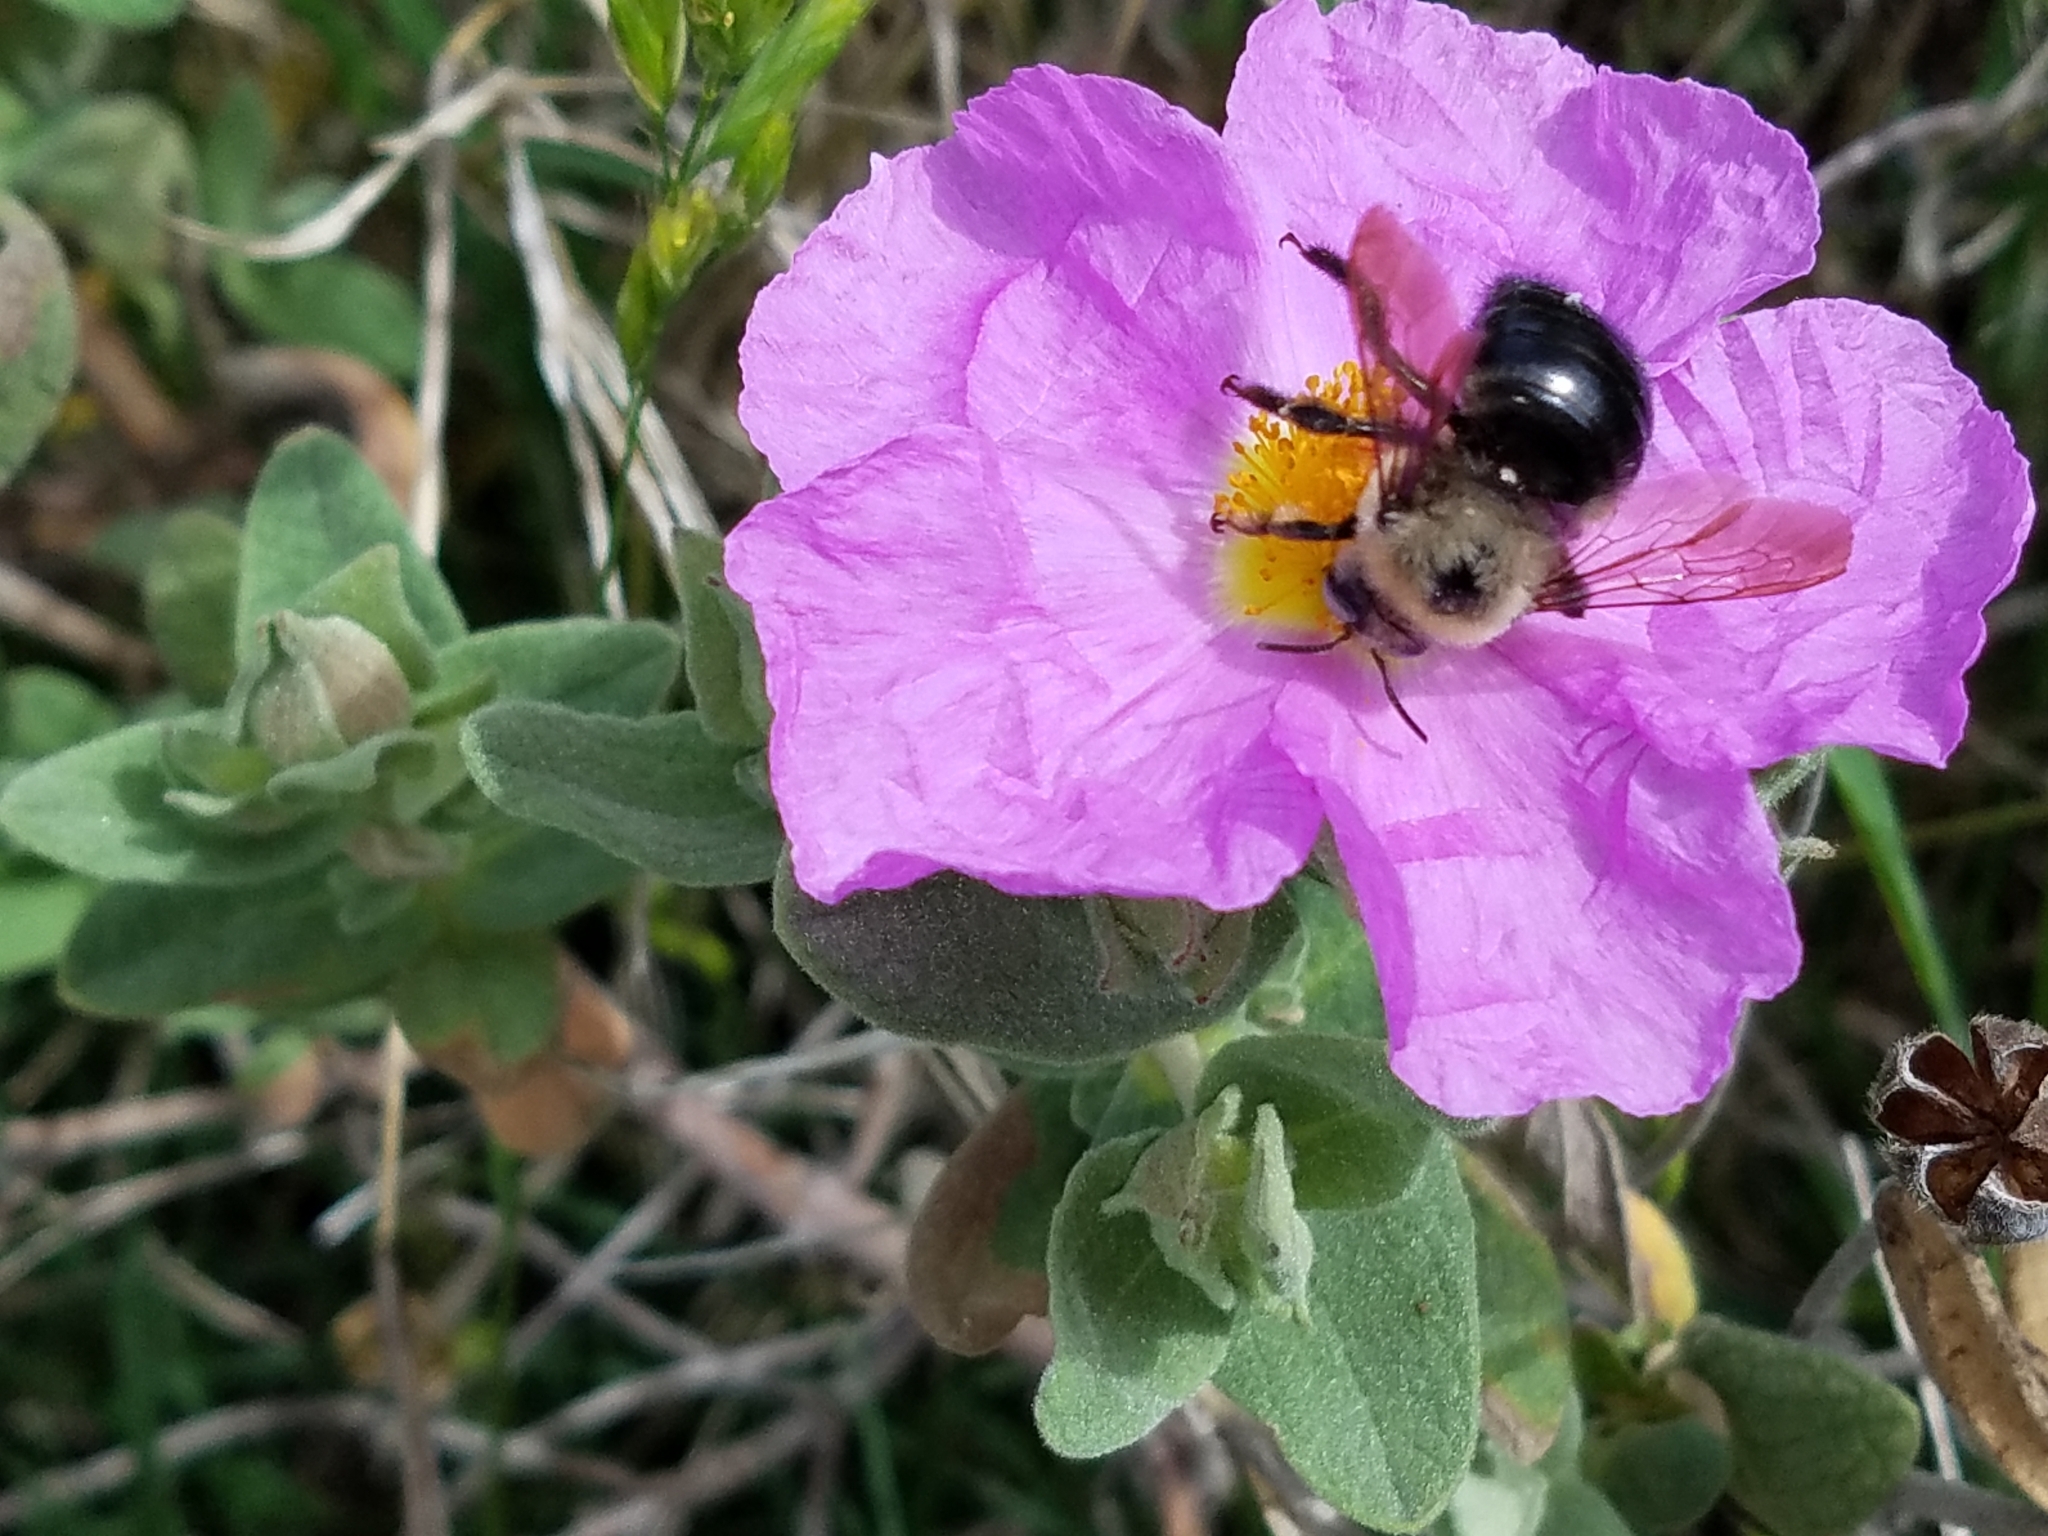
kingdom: Animalia
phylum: Arthropoda
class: Insecta
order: Hymenoptera
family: Apidae
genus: Xylocopa
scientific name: Xylocopa tabaniformis
